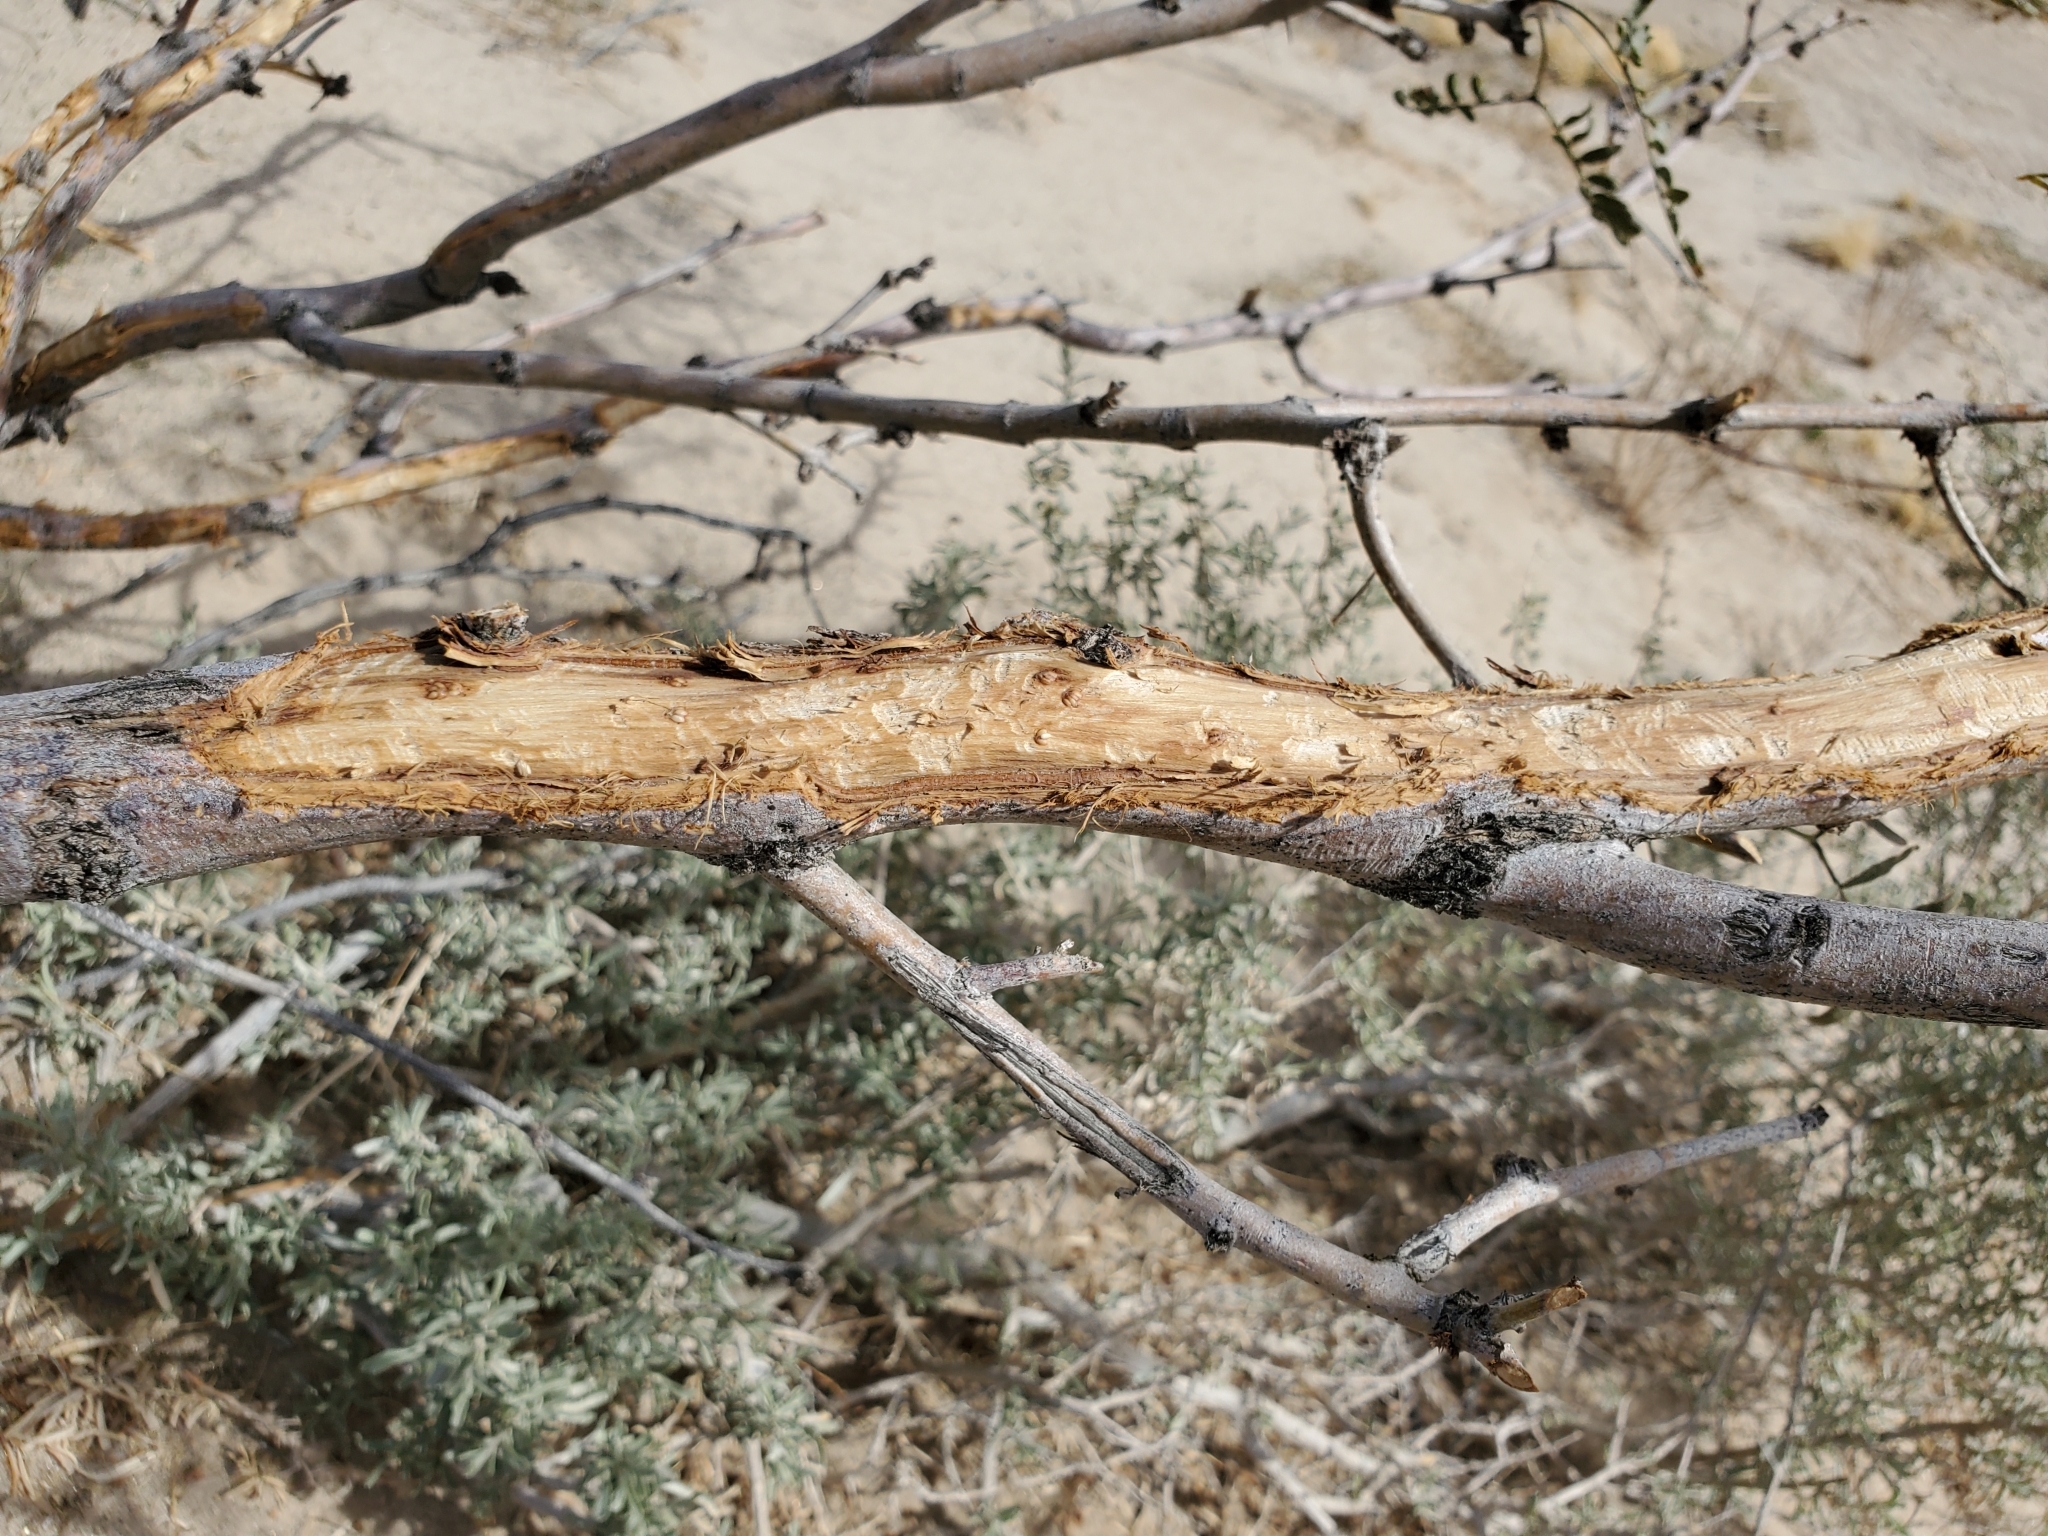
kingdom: Plantae
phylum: Tracheophyta
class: Magnoliopsida
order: Fabales
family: Fabaceae
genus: Prosopis
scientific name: Prosopis pubescens
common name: Screw-bean
